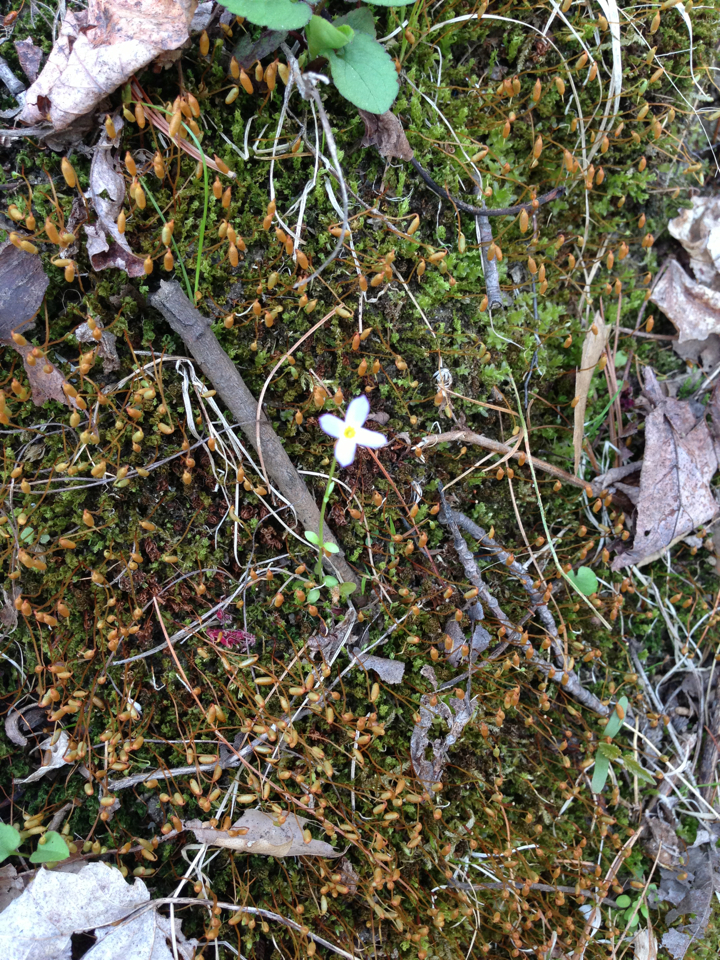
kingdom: Plantae
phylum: Tracheophyta
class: Magnoliopsida
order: Gentianales
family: Rubiaceae
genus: Houstonia
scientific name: Houstonia caerulea
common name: Bluets
